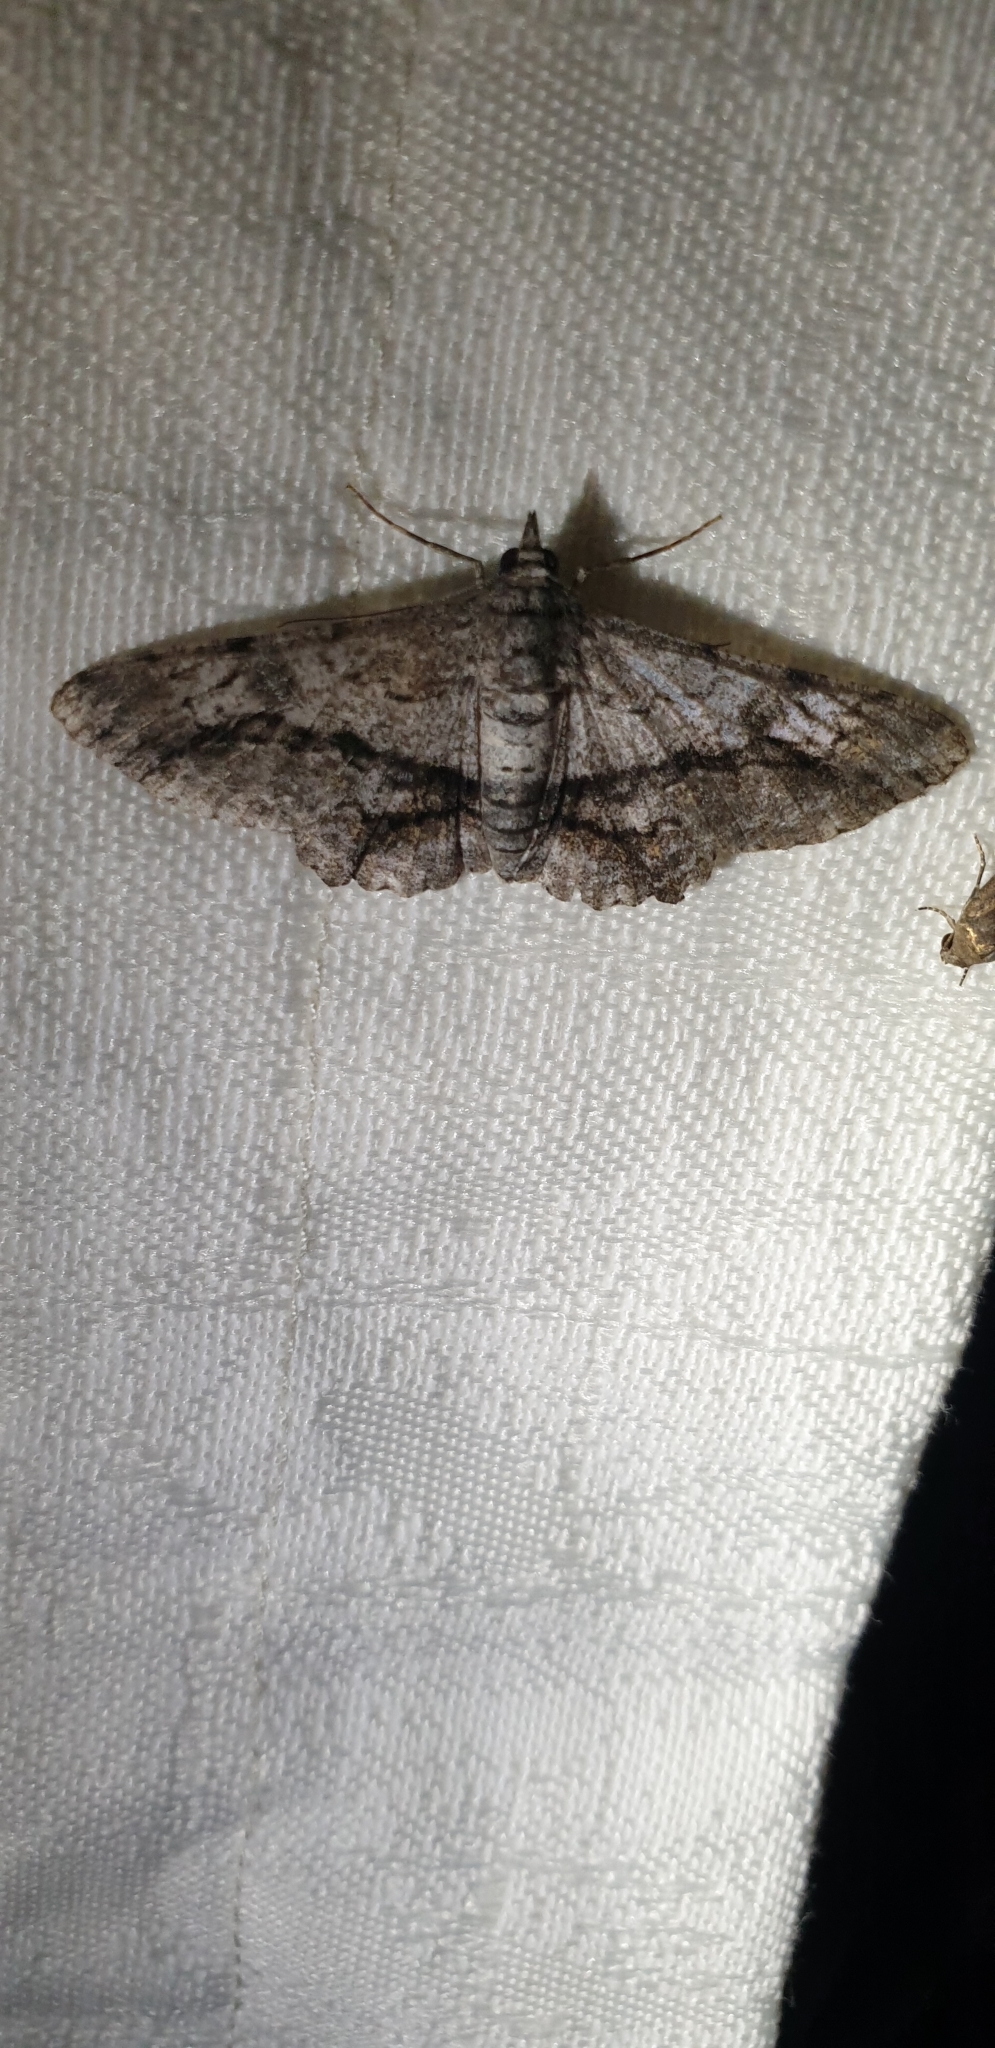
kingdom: Animalia
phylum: Arthropoda
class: Insecta
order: Lepidoptera
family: Geometridae
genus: Cleora
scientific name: Cleora injectaria
